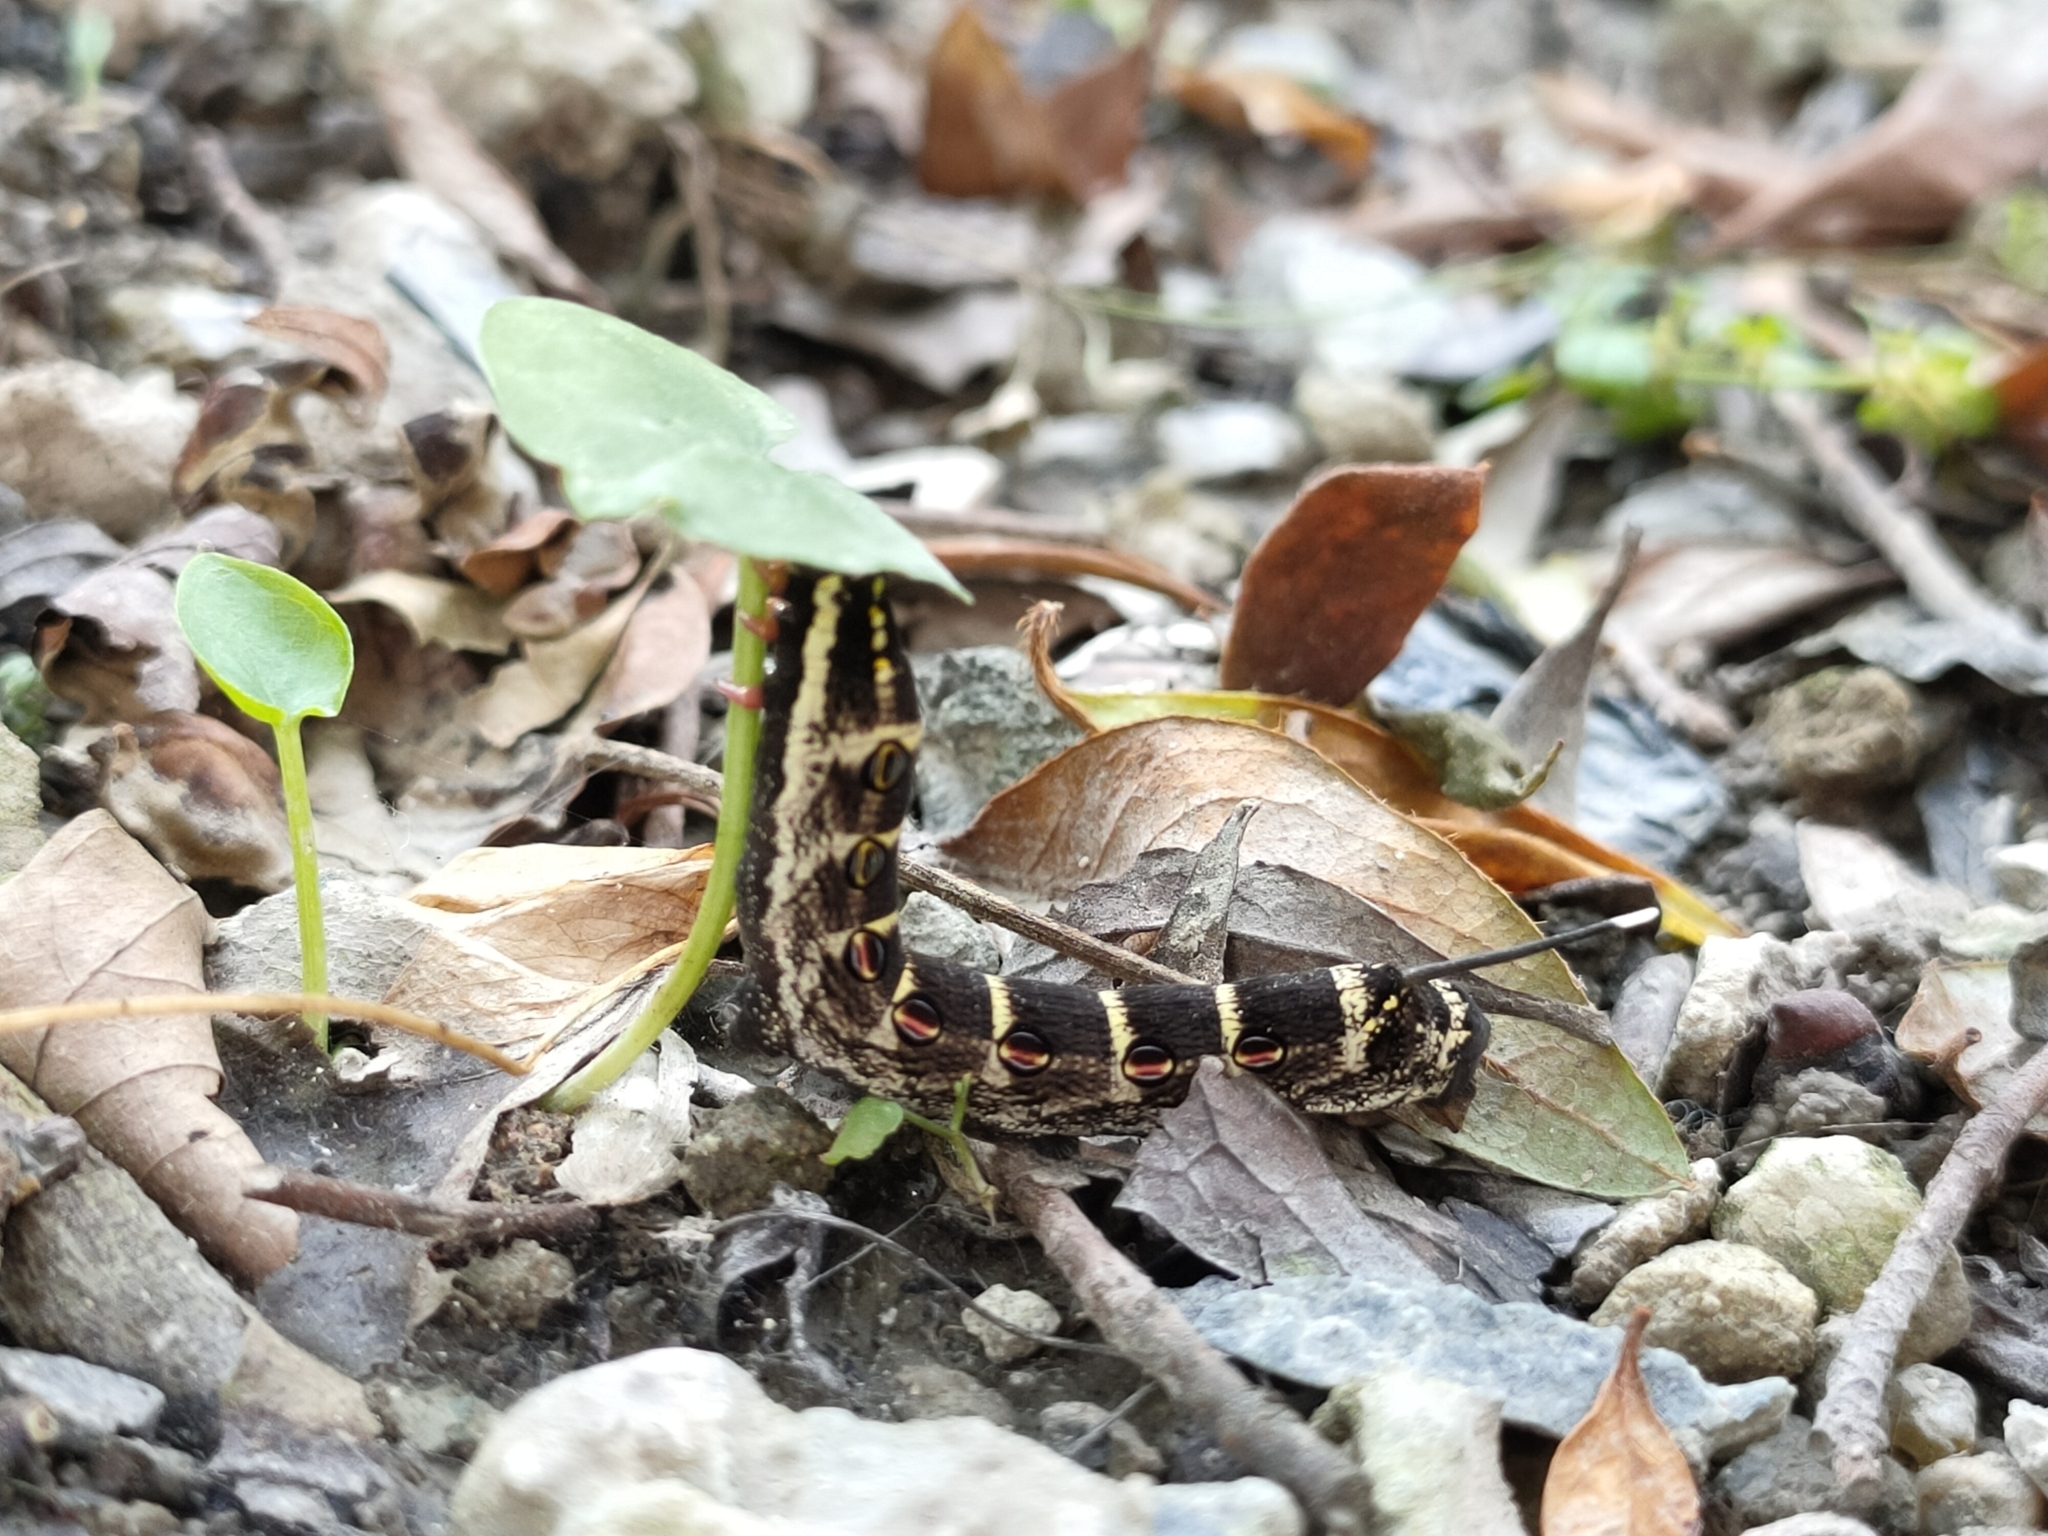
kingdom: Animalia
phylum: Arthropoda
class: Insecta
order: Lepidoptera
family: Sphingidae
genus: Theretra
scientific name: Theretra oldenlandiae
